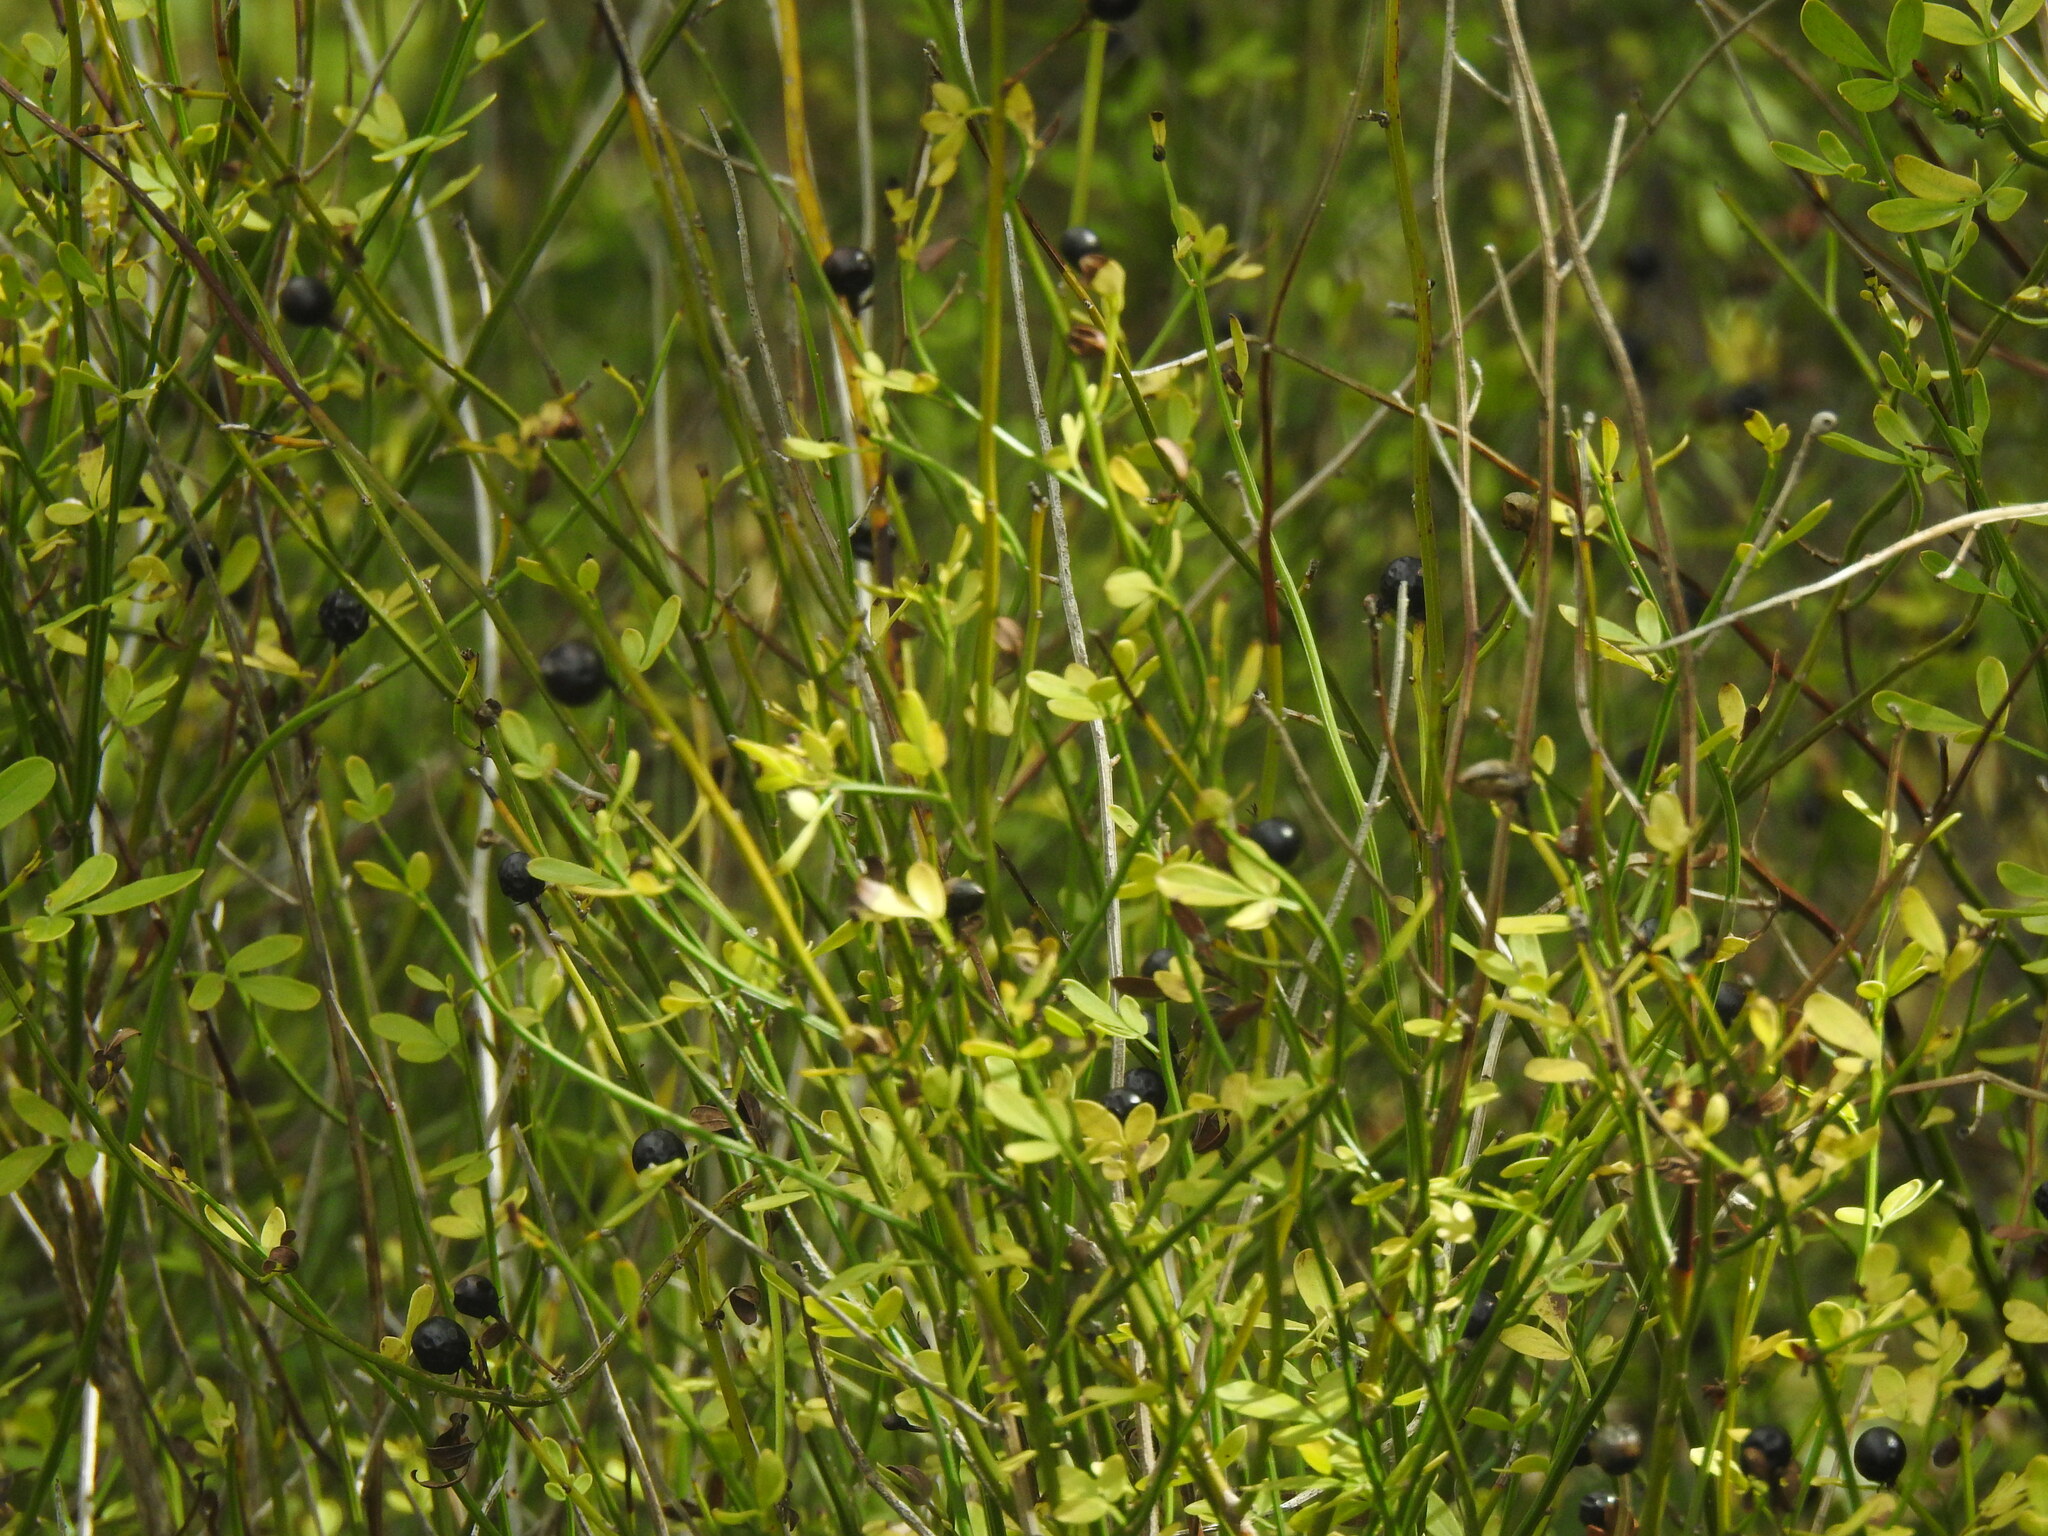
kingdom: Plantae
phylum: Tracheophyta
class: Magnoliopsida
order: Lamiales
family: Oleaceae
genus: Chrysojasminum
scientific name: Chrysojasminum fruticans
